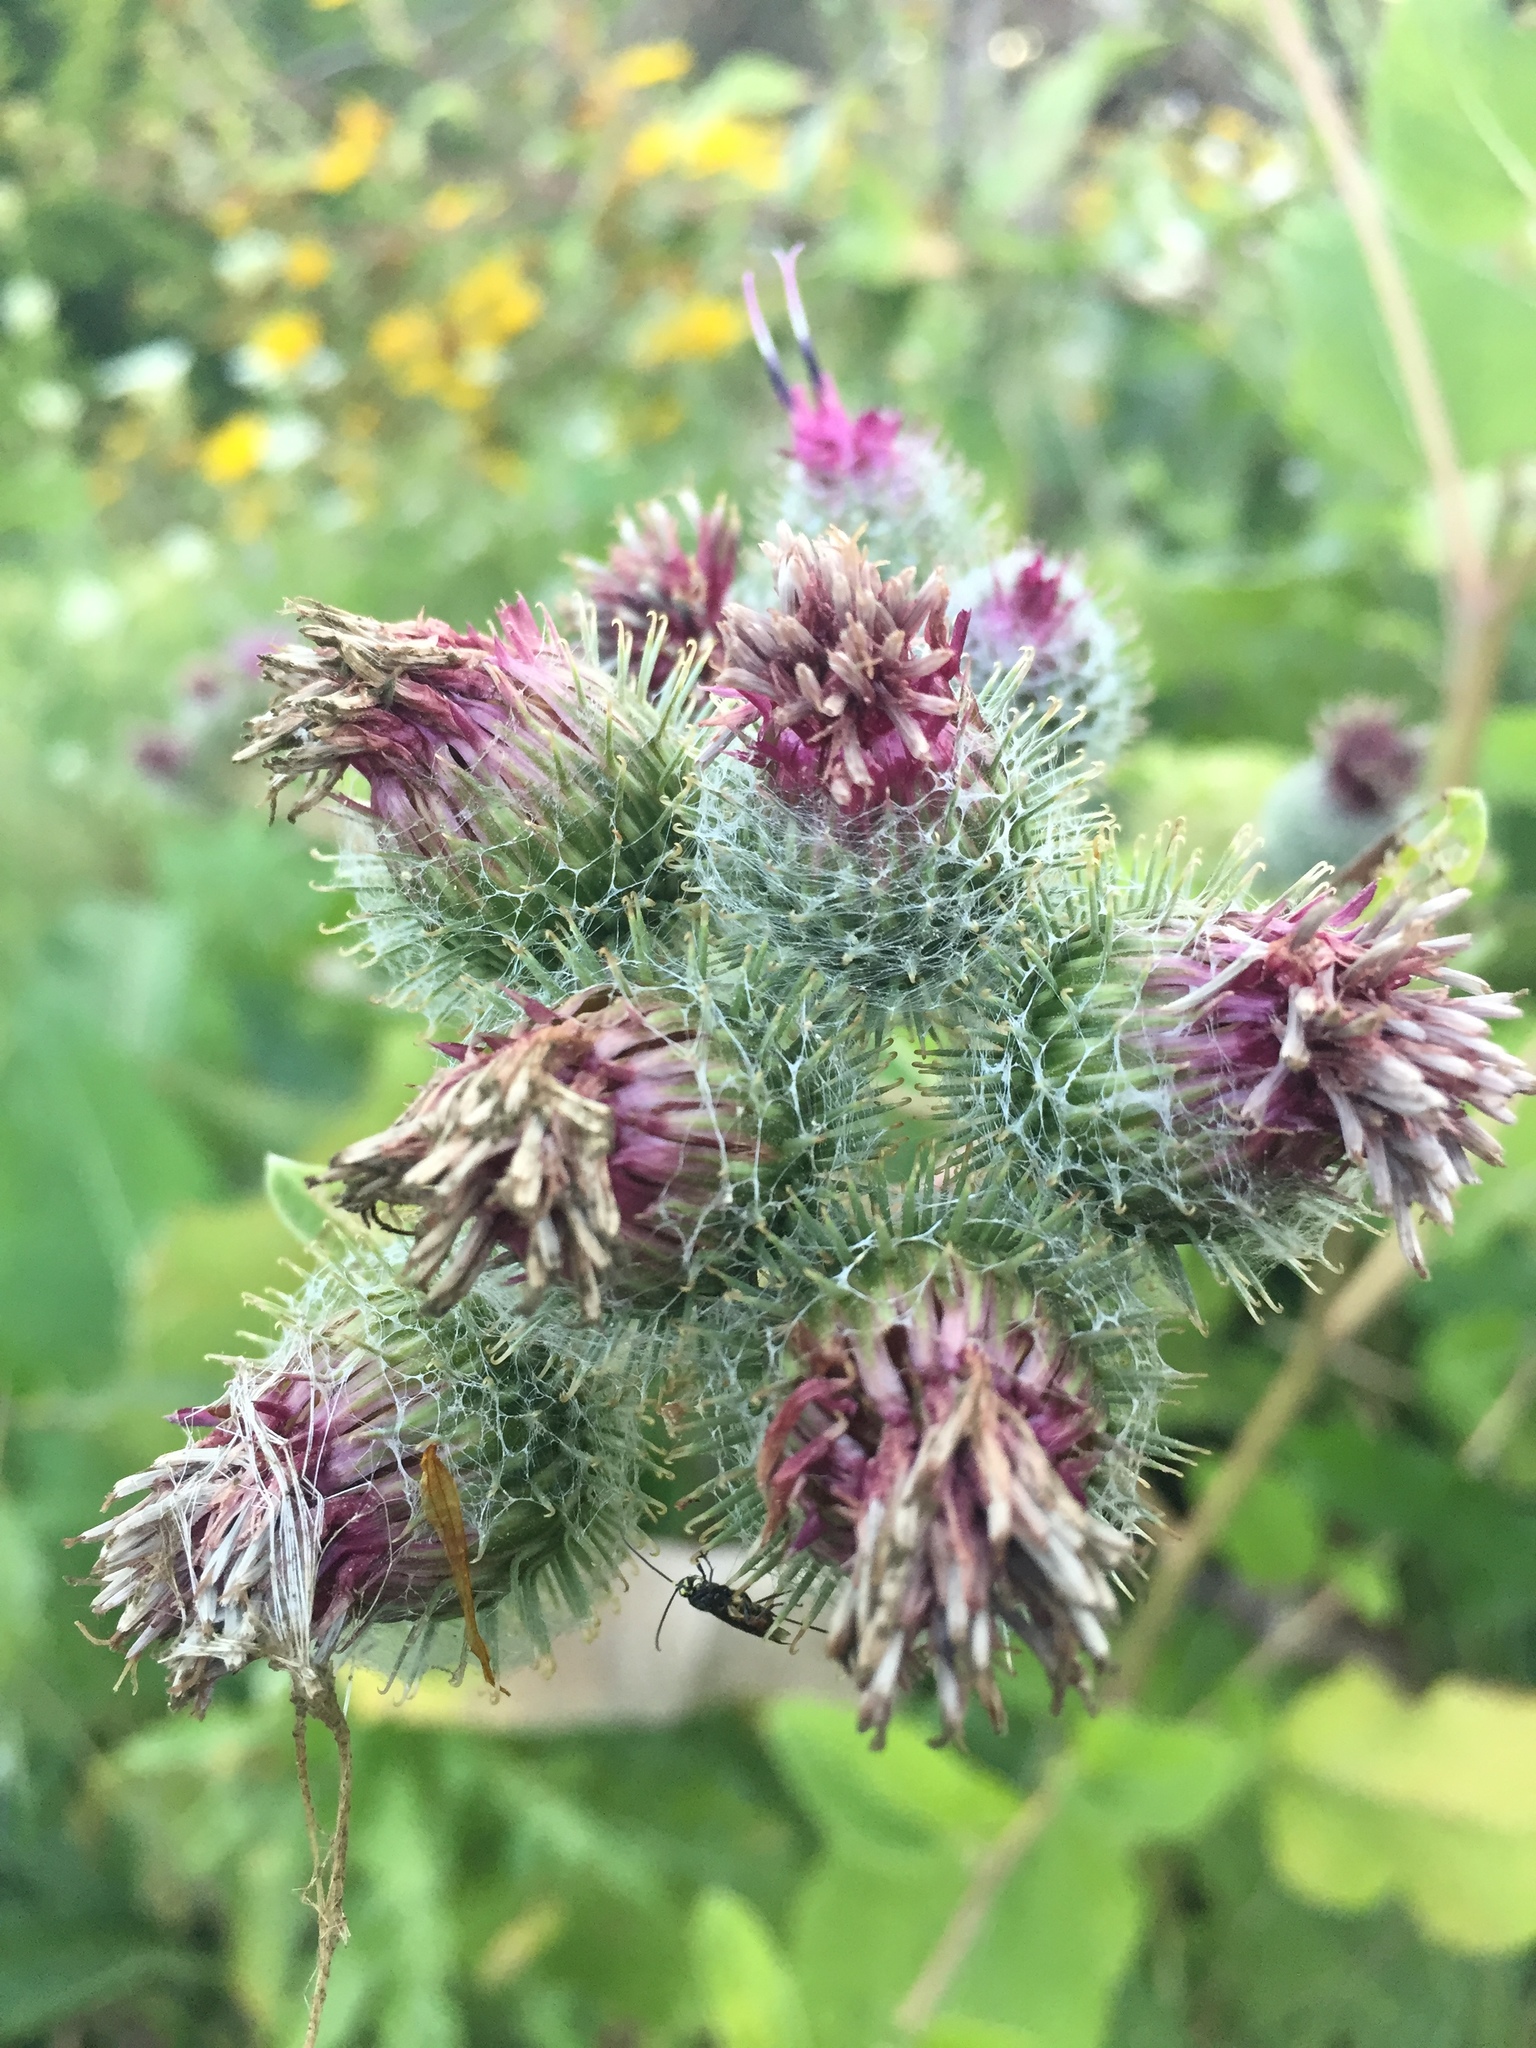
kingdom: Plantae
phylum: Tracheophyta
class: Magnoliopsida
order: Asterales
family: Asteraceae
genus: Arctium
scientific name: Arctium tomentosum
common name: Woolly burdock
